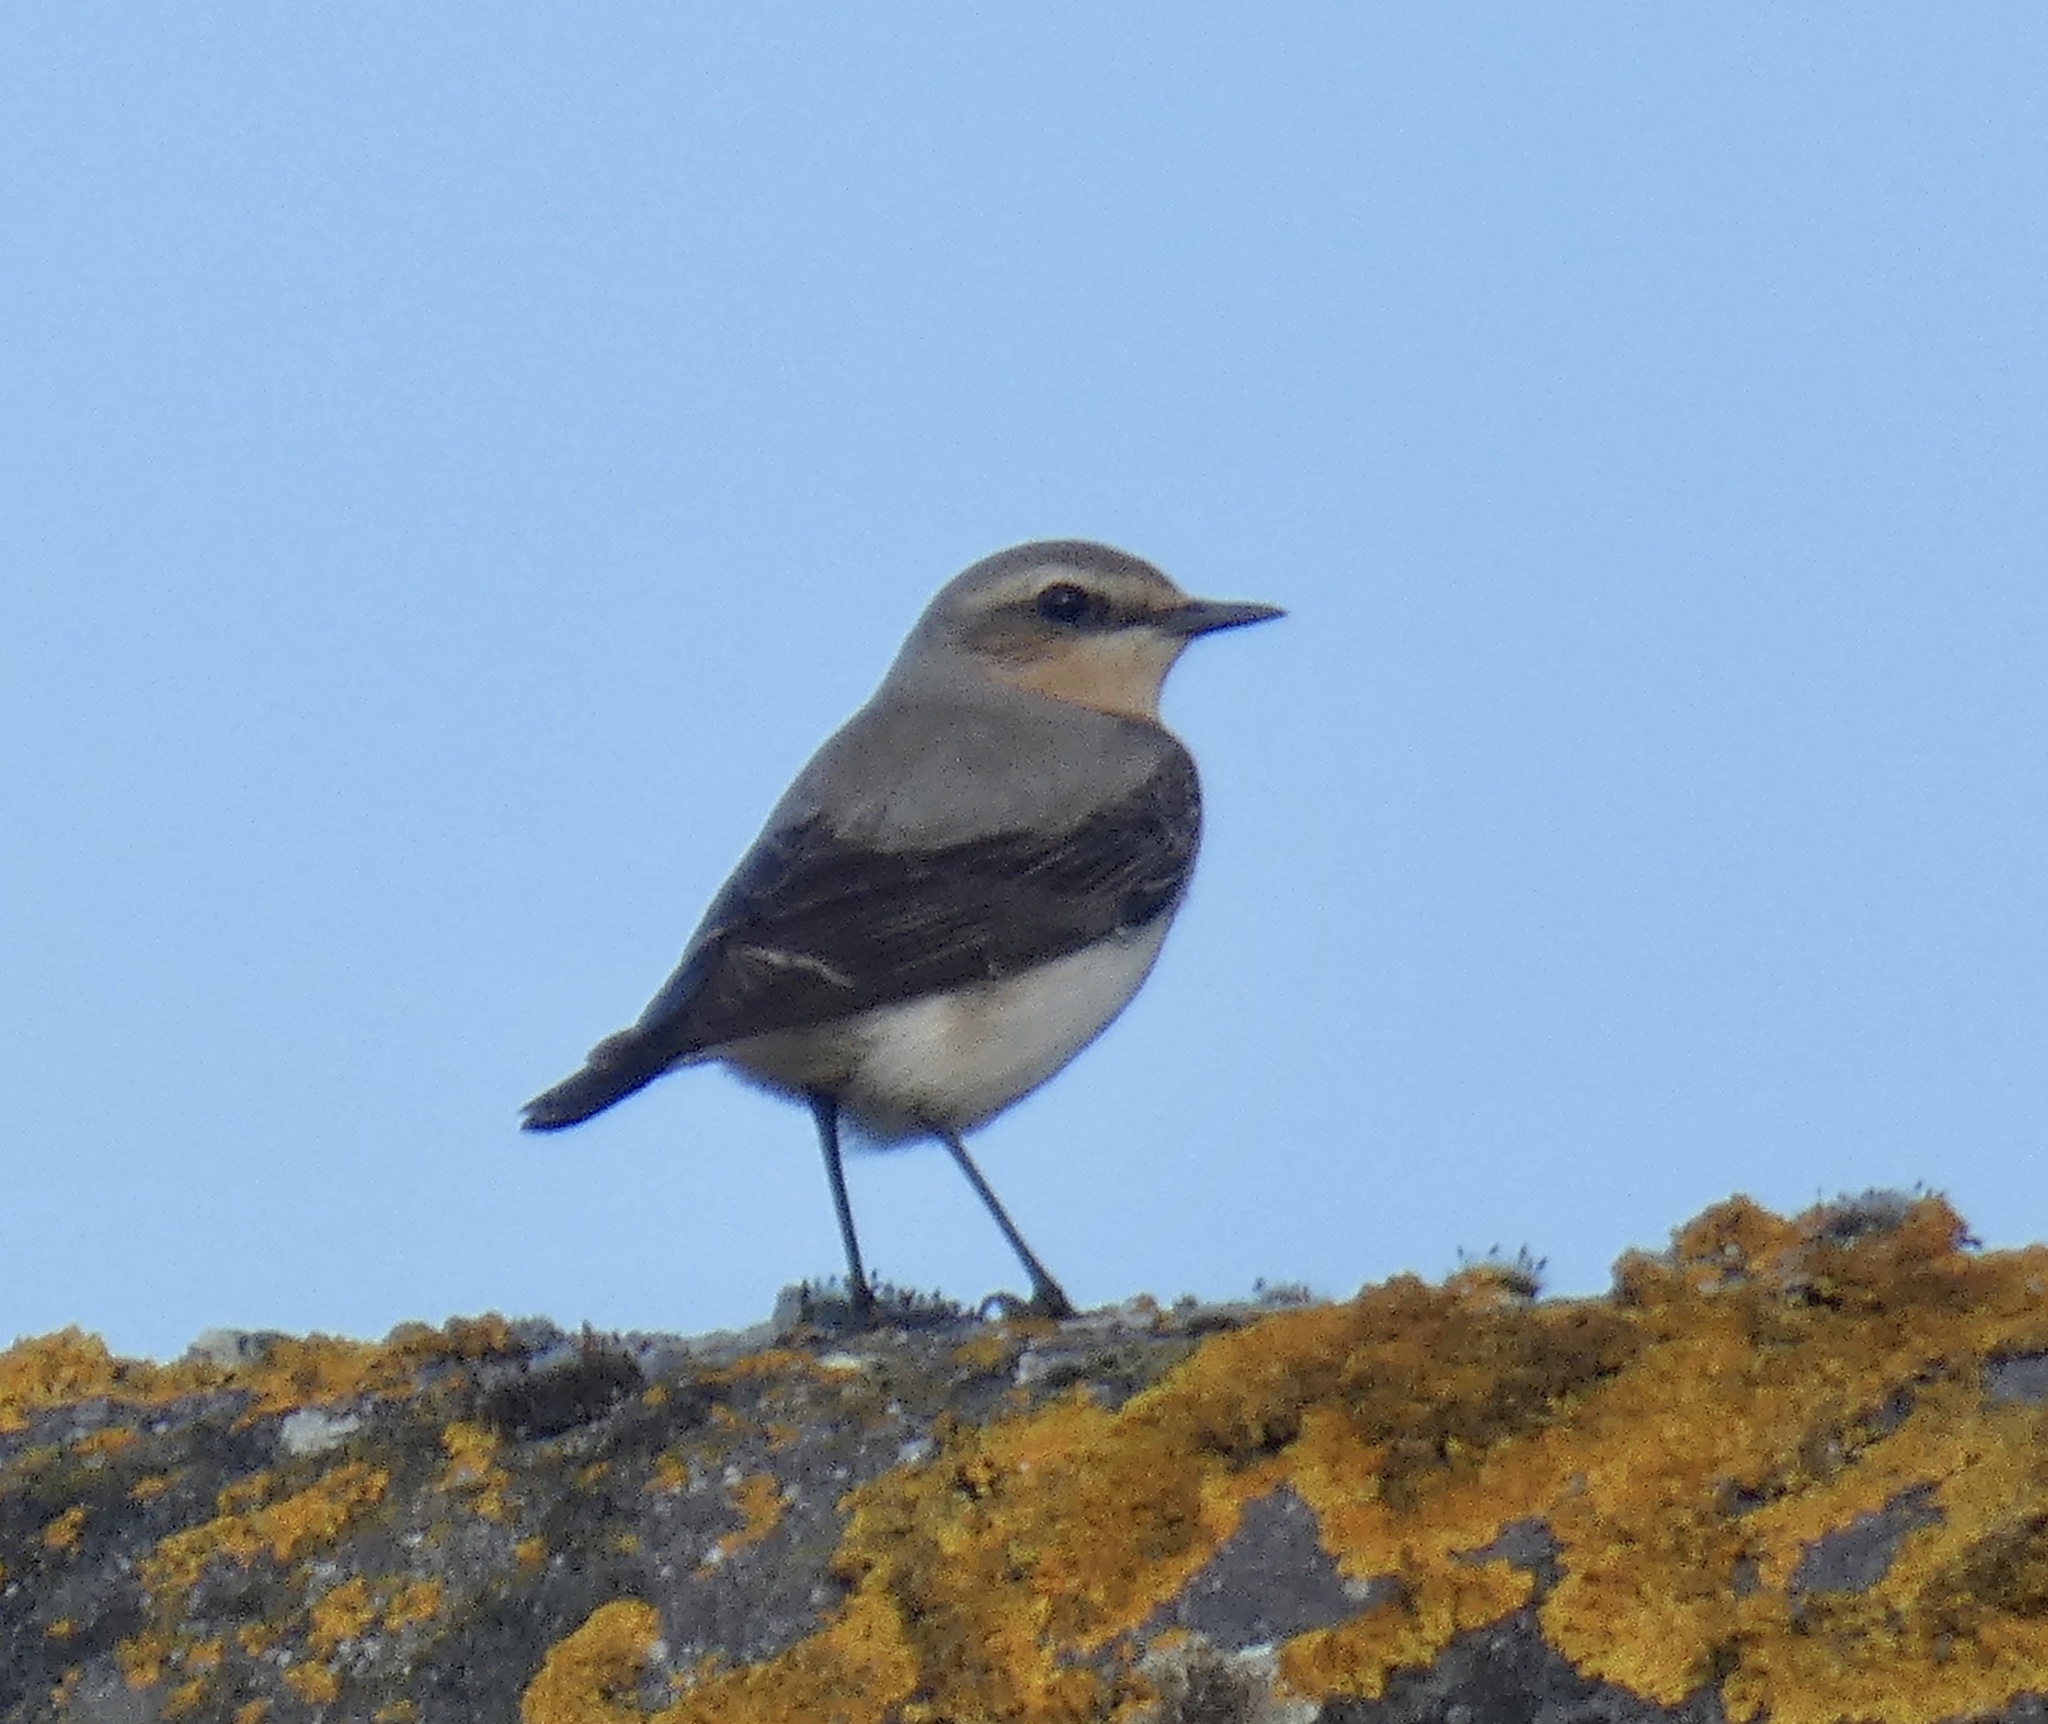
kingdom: Animalia
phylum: Chordata
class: Aves
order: Passeriformes
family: Muscicapidae
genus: Oenanthe
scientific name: Oenanthe oenanthe
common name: Northern wheatear
